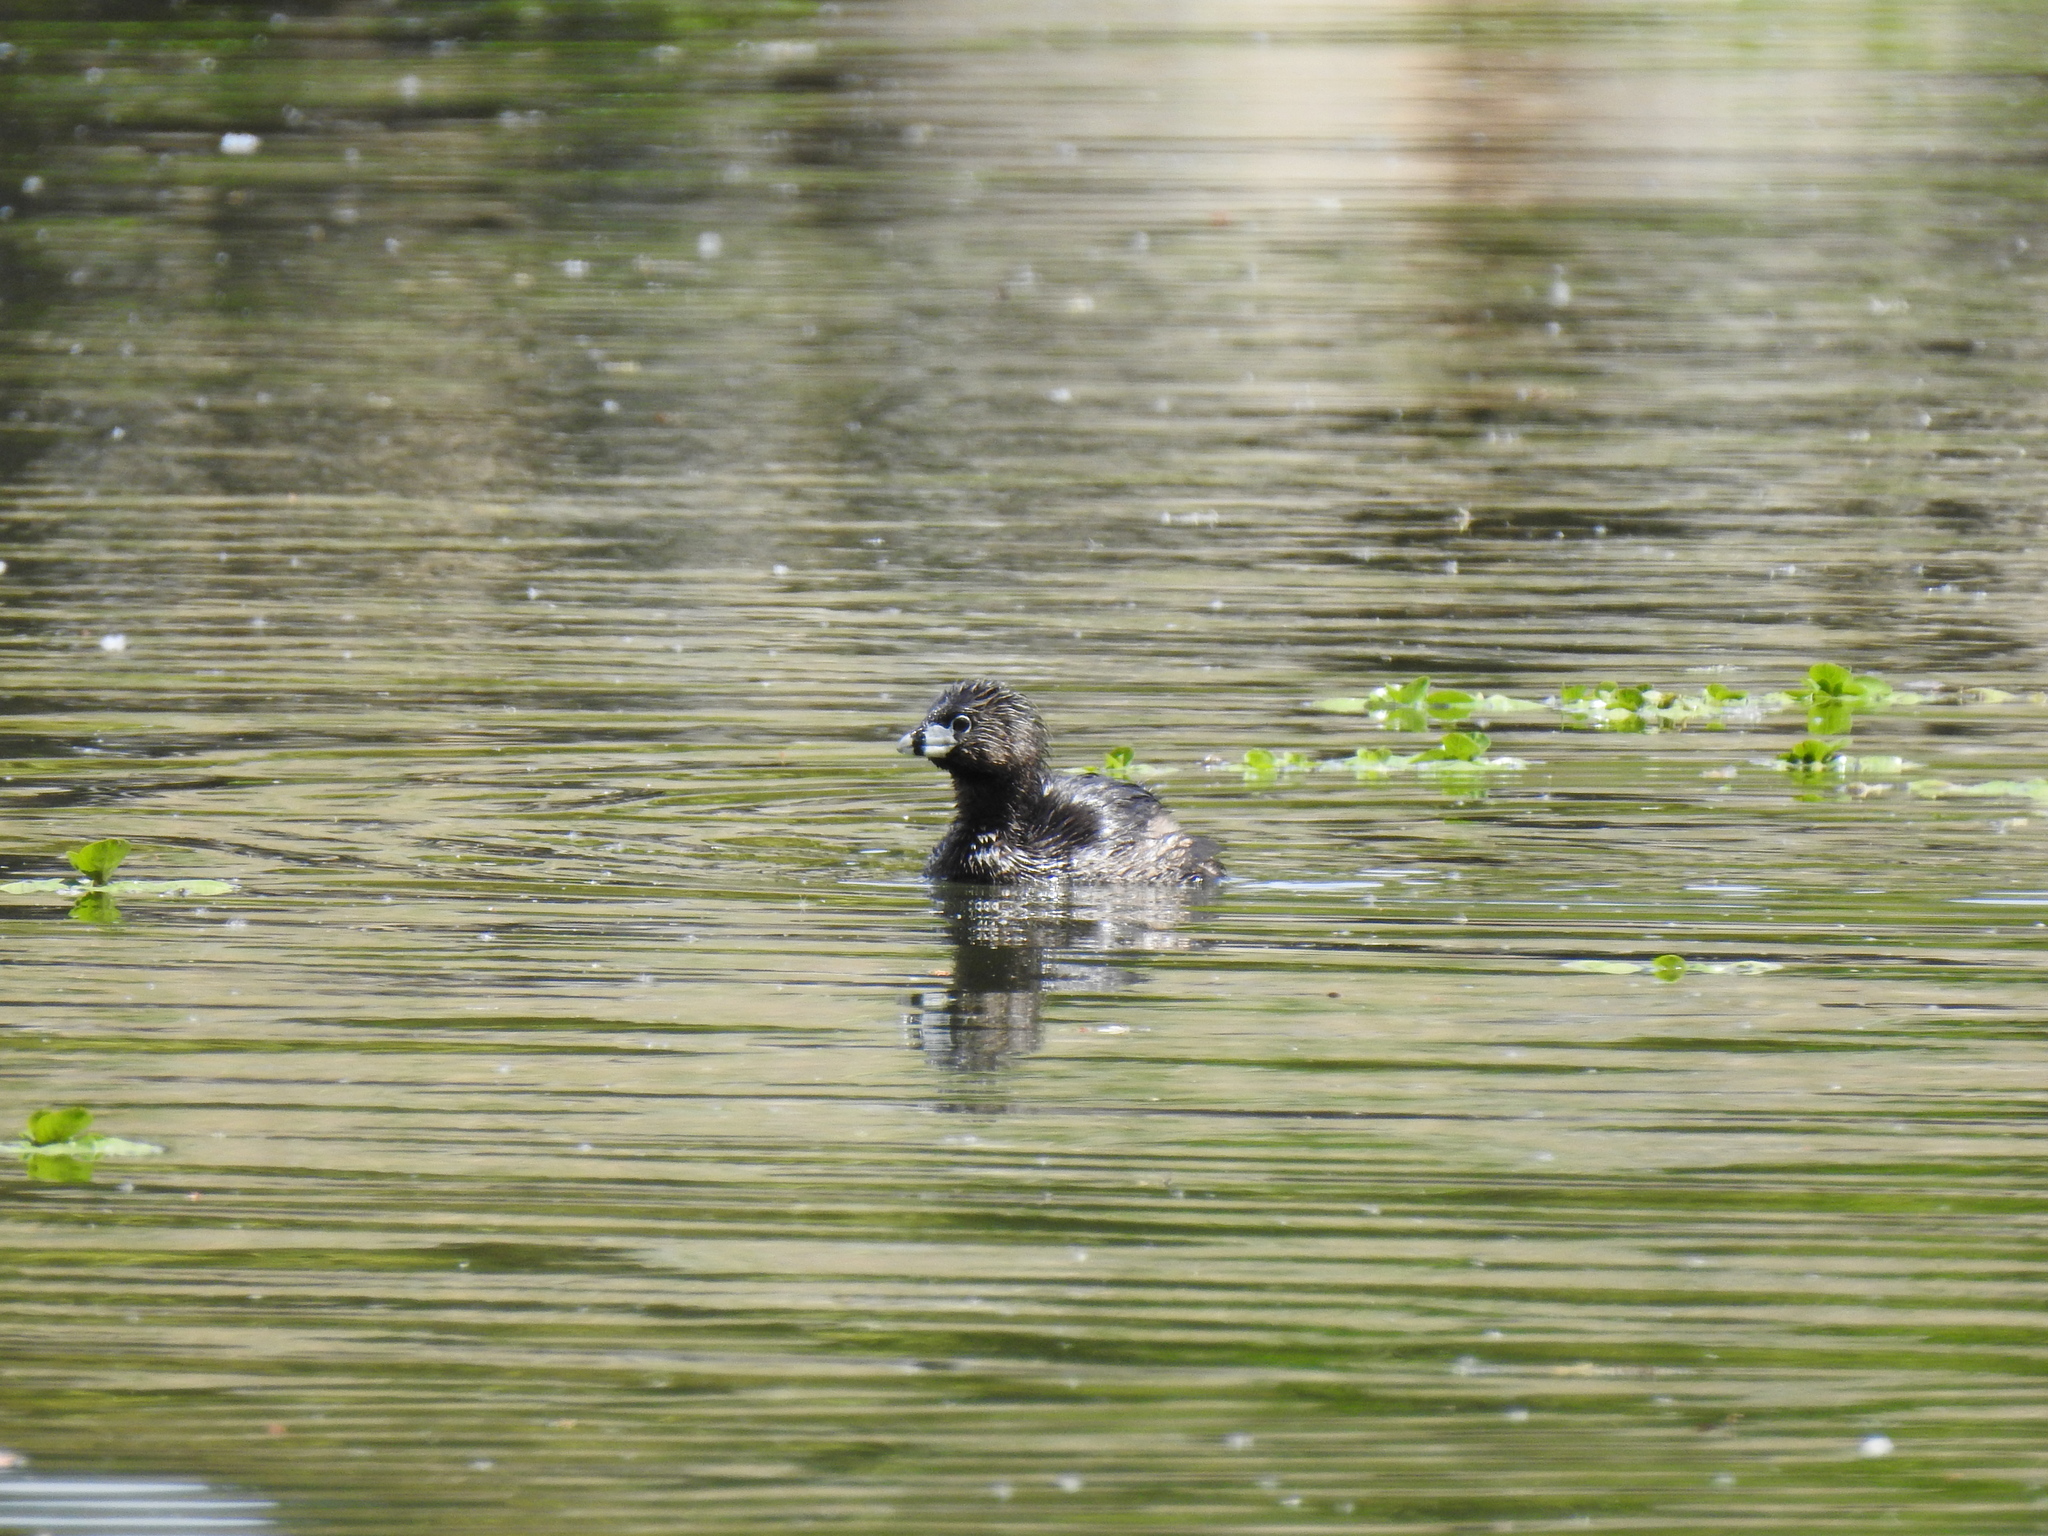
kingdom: Animalia
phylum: Chordata
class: Aves
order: Podicipediformes
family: Podicipedidae
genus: Podilymbus
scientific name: Podilymbus podiceps
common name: Pied-billed grebe
